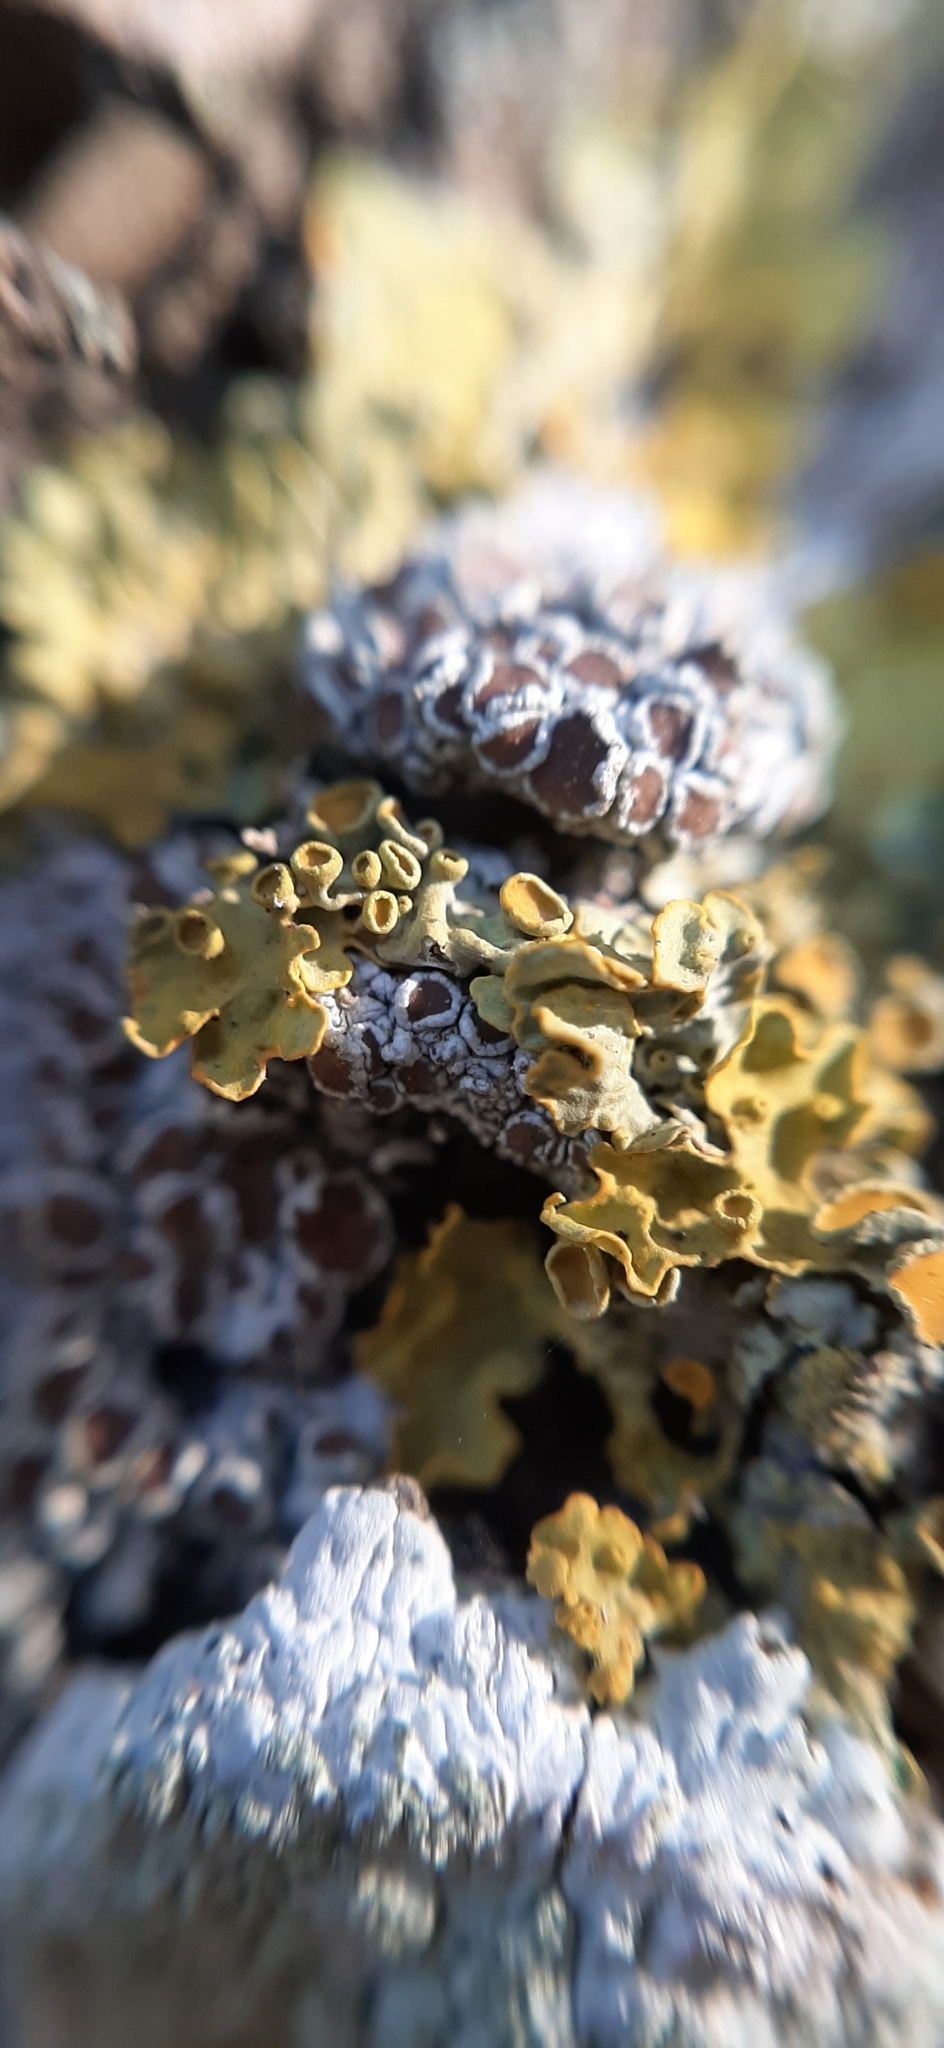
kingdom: Fungi
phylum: Ascomycota
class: Lecanoromycetes
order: Teloschistales
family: Teloschistaceae
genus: Xanthoria
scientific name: Xanthoria parietina
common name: Common orange lichen
